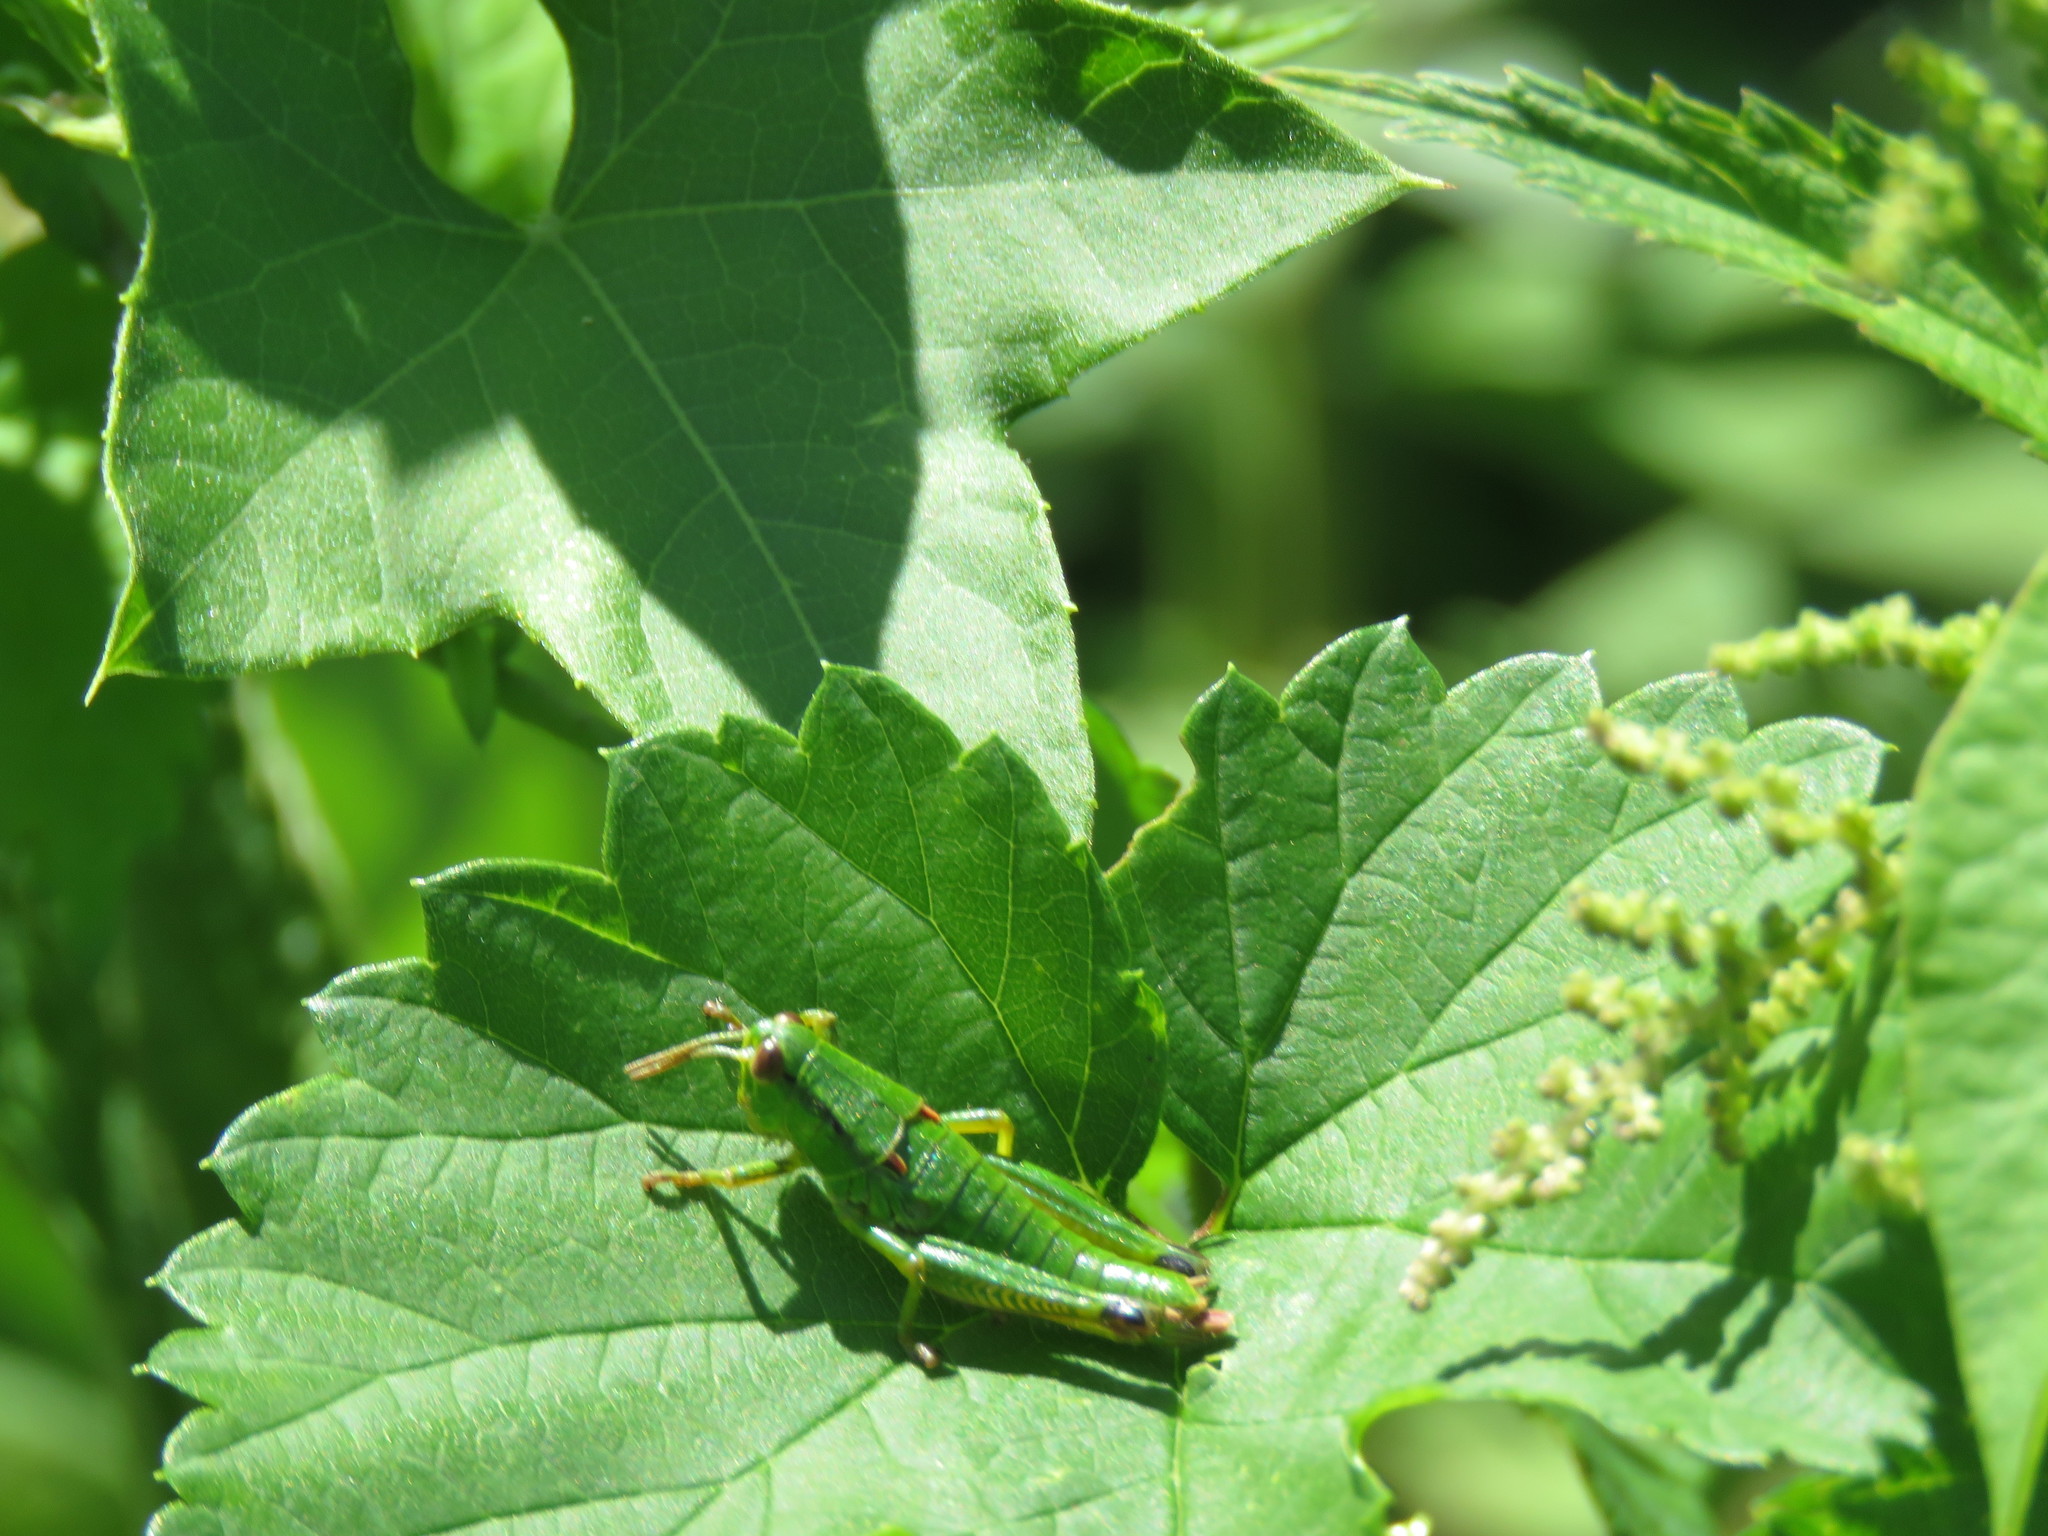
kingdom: Animalia
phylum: Arthropoda
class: Insecta
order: Orthoptera
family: Acrididae
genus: Odontopodisma
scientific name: Odontopodisma schmidtii
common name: Schmidt's mountain grasshopper
